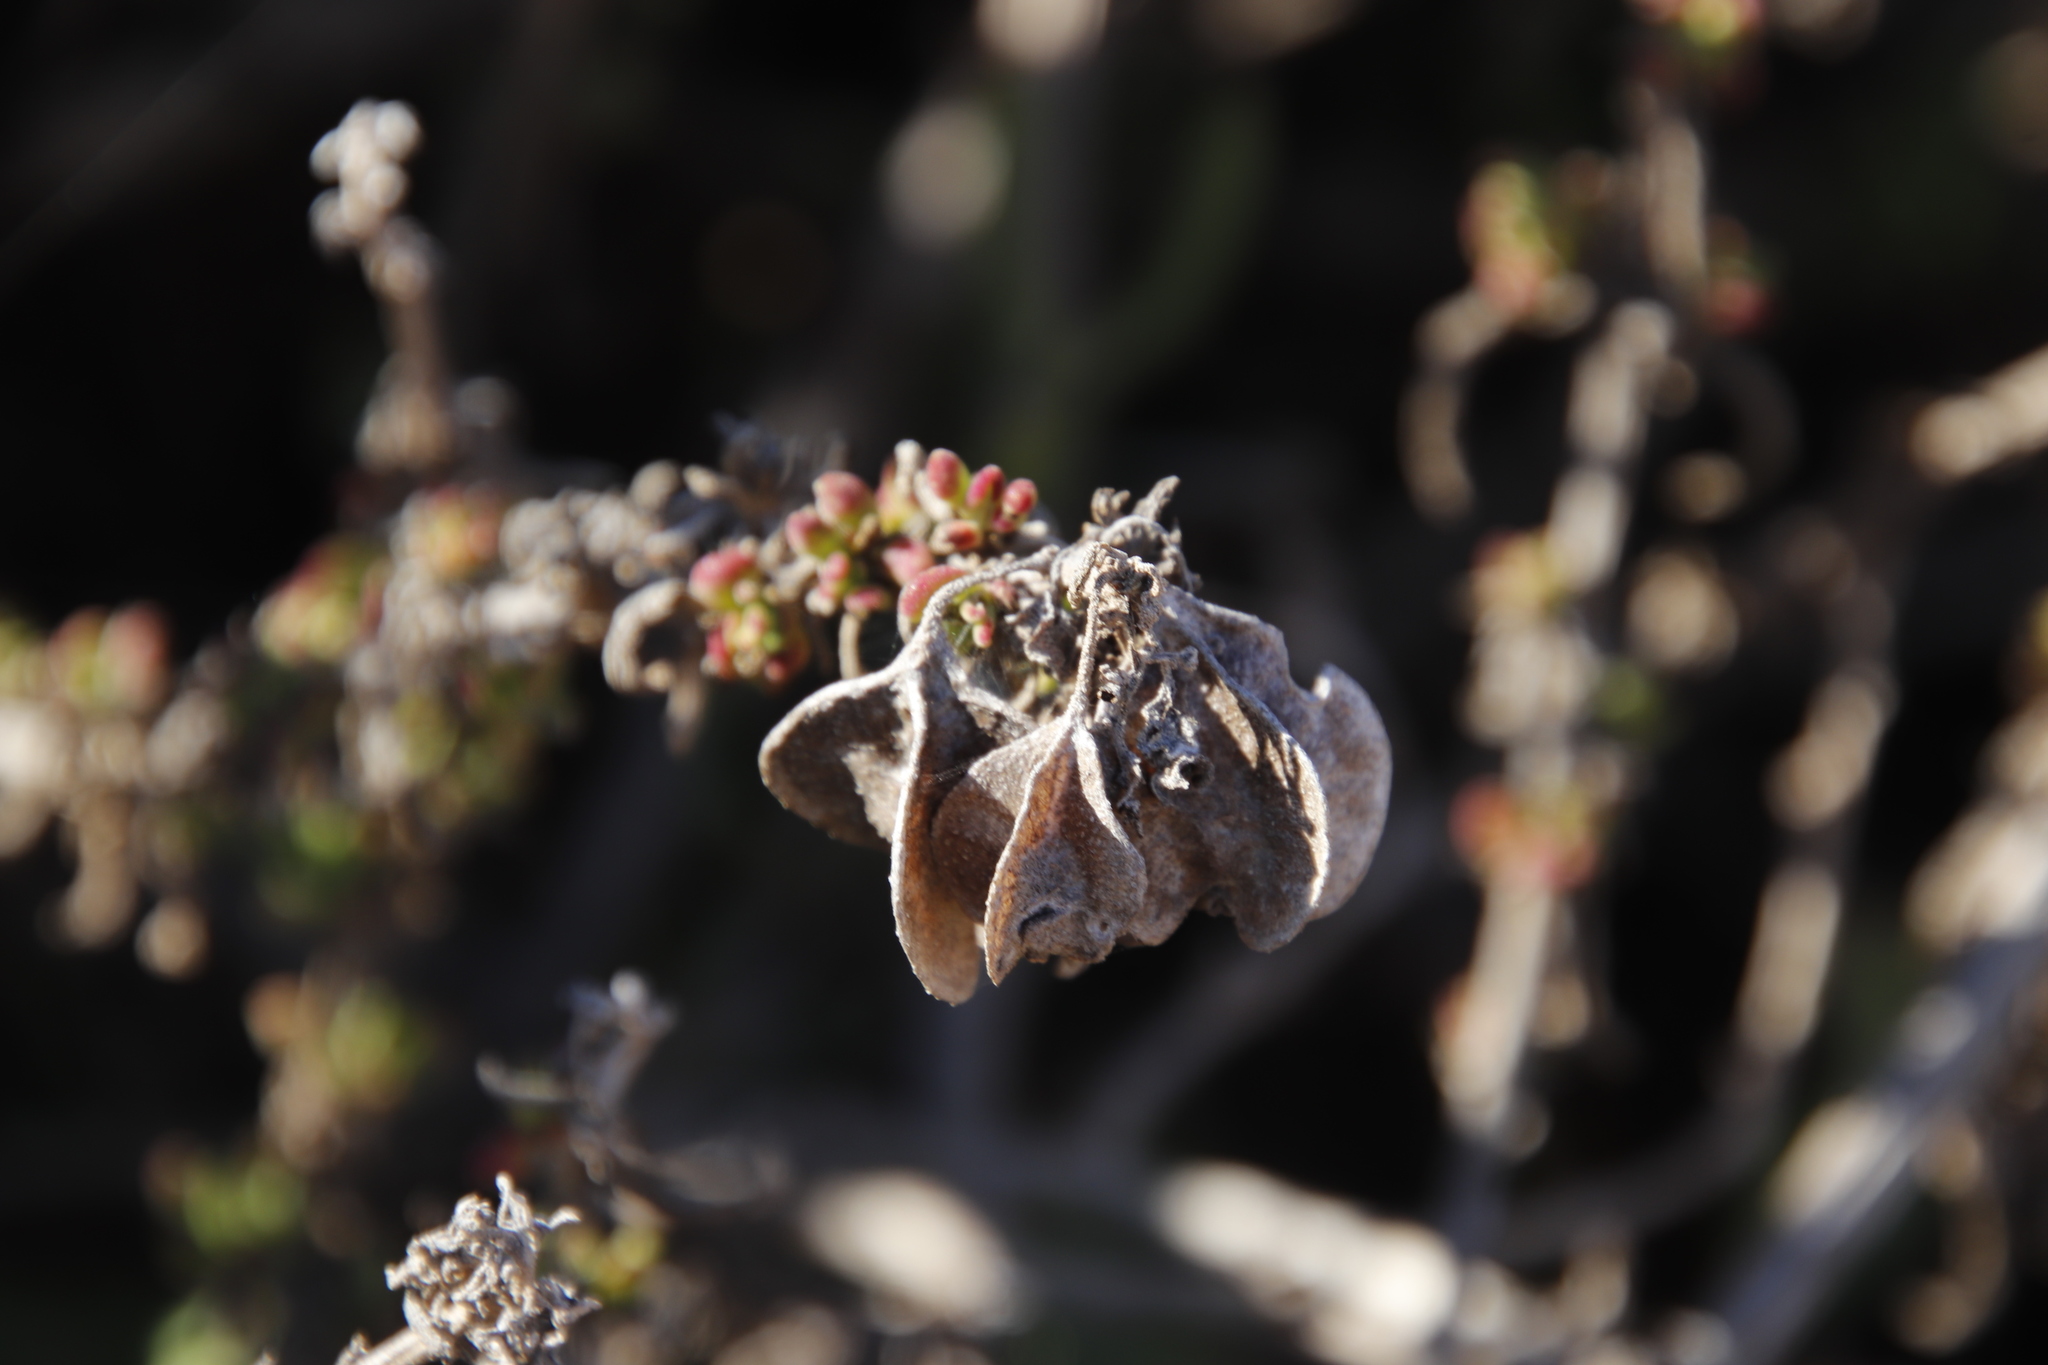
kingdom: Plantae
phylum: Tracheophyta
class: Magnoliopsida
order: Caryophyllales
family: Aizoaceae
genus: Tetragonia
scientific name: Tetragonia fruticosa
